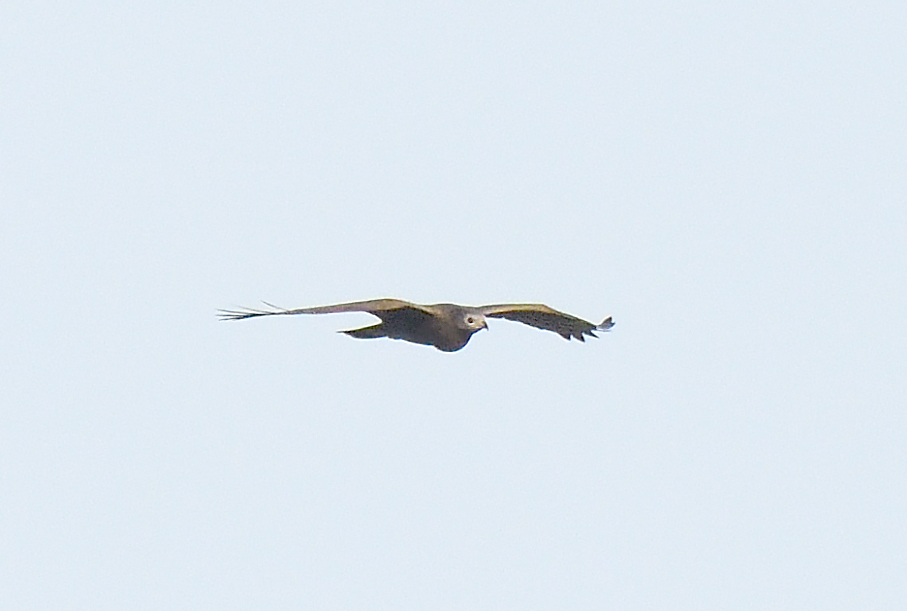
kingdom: Animalia
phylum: Chordata
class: Aves
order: Accipitriformes
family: Accipitridae
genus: Pernis
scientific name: Pernis ptilorhynchus
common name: Crested honey buzzard
